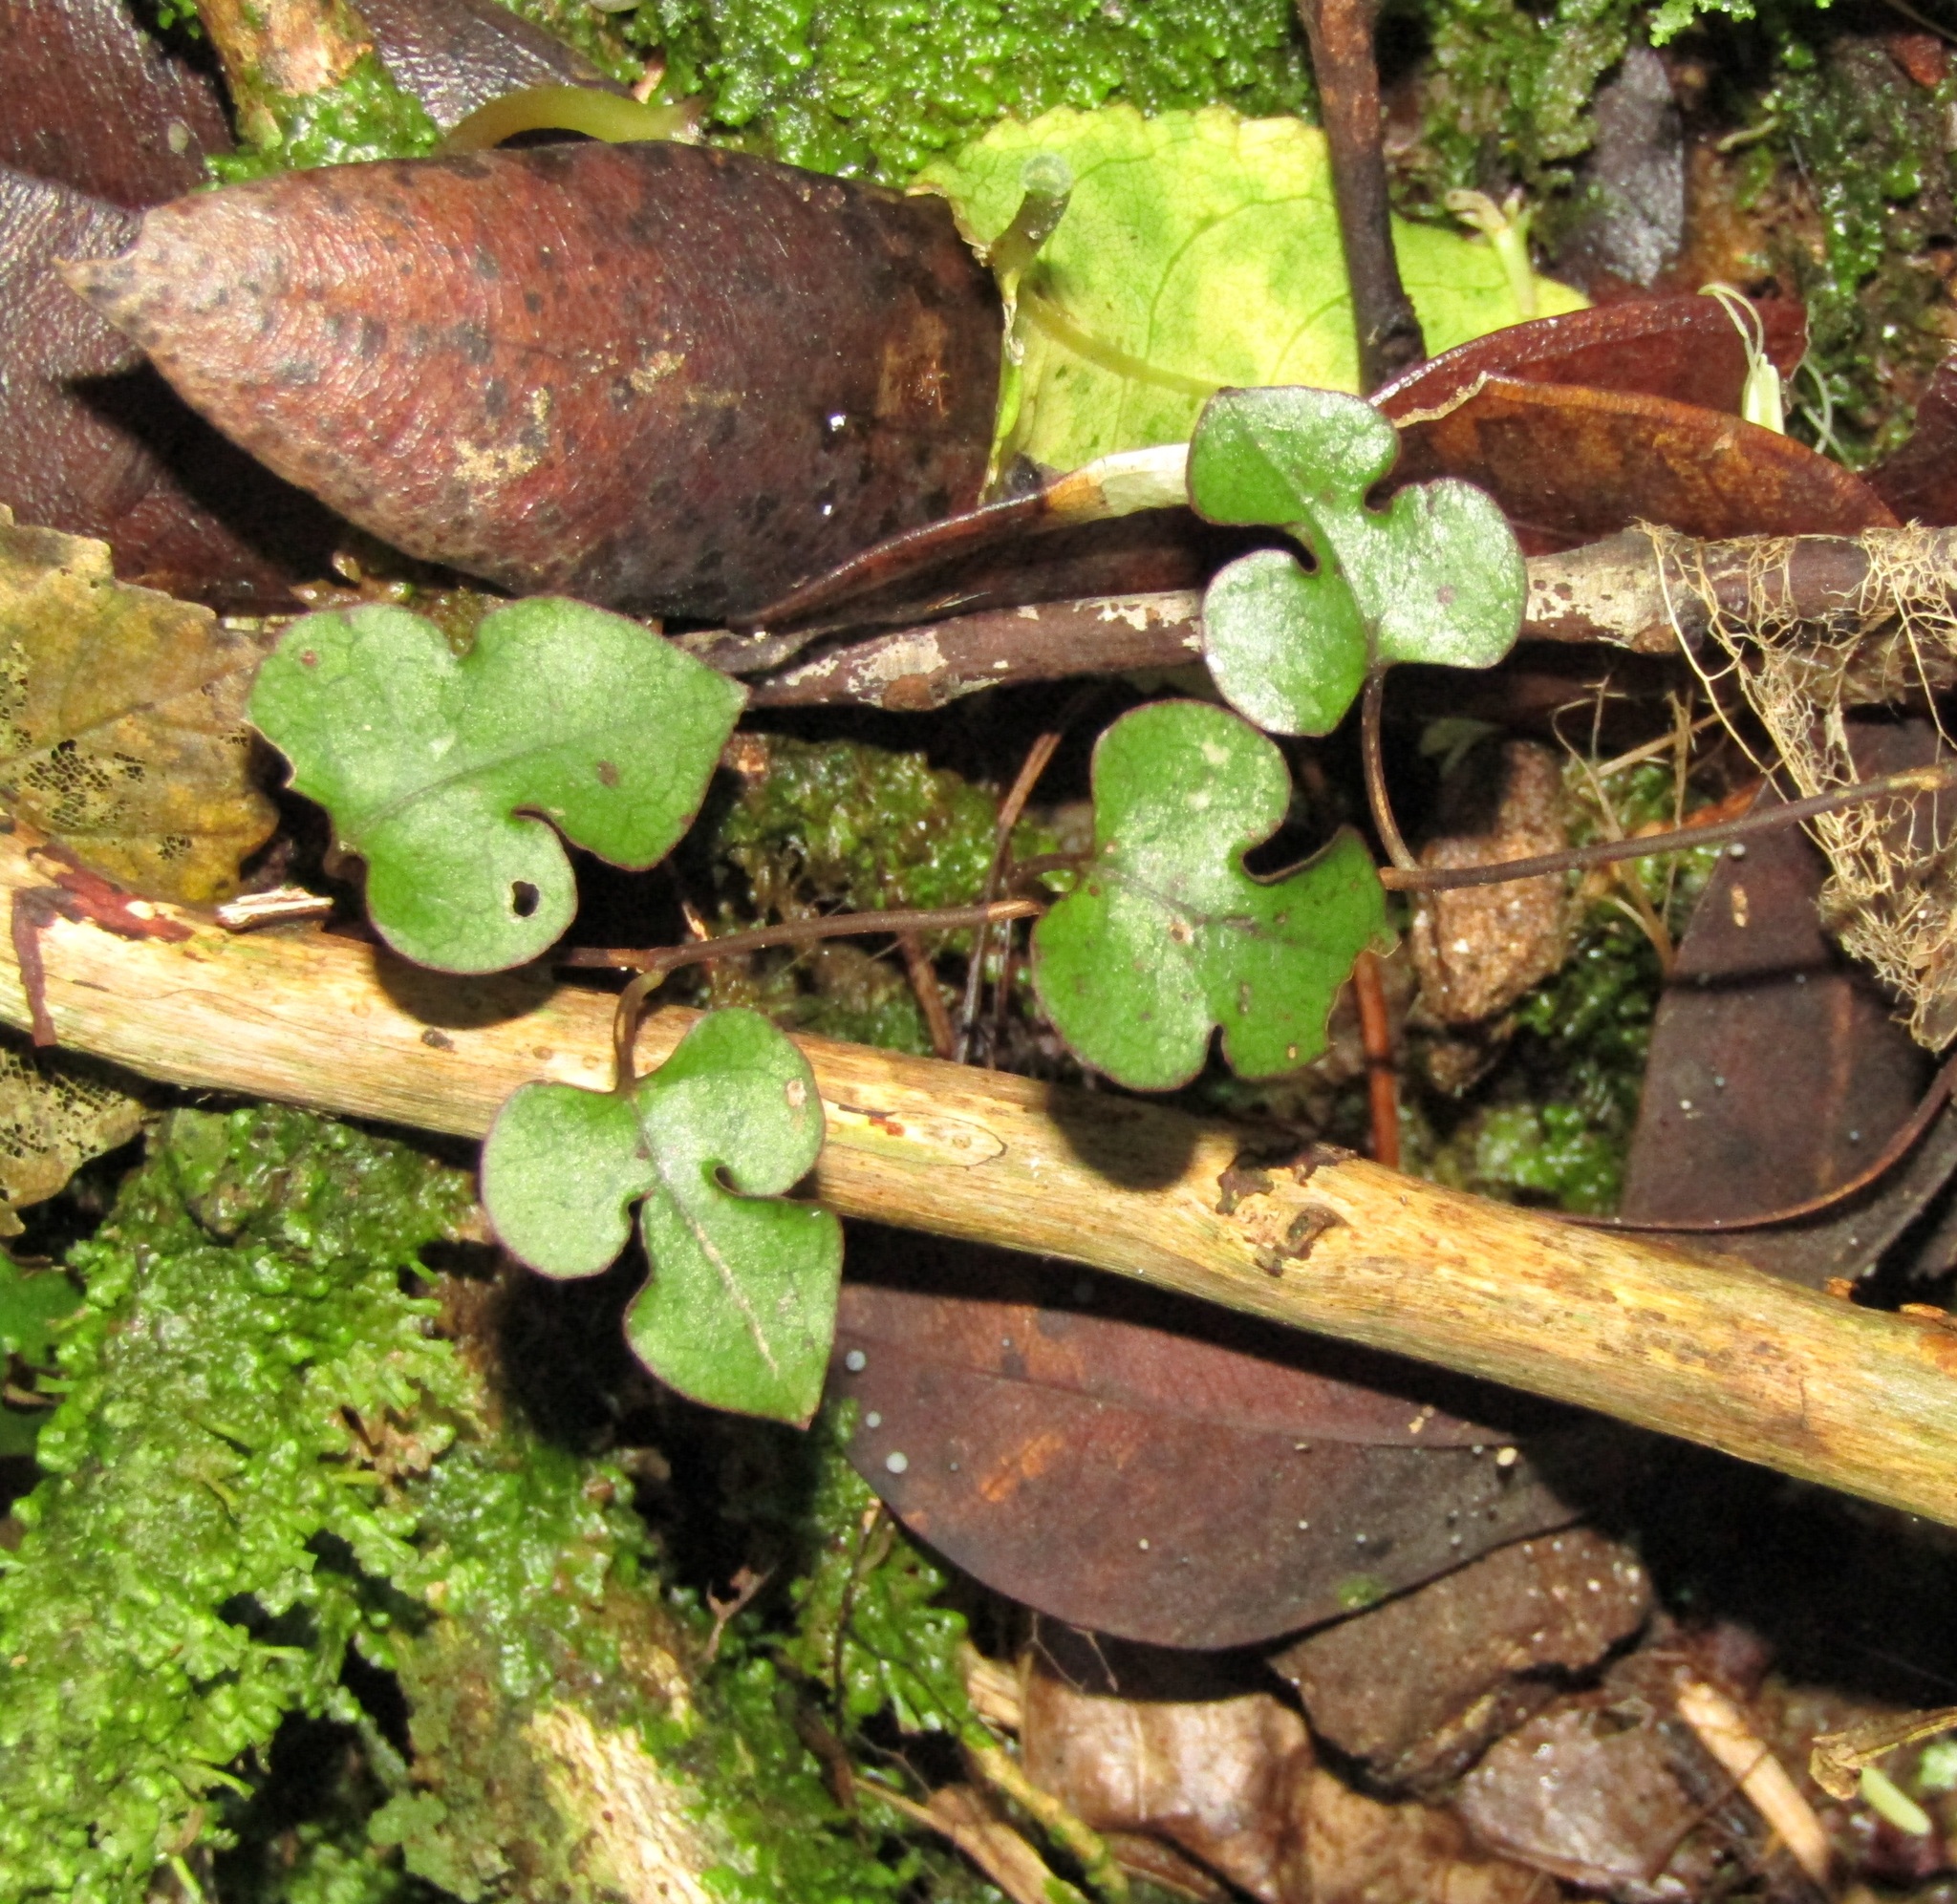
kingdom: Plantae
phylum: Tracheophyta
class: Magnoliopsida
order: Caryophyllales
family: Polygonaceae
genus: Muehlenbeckia
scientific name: Muehlenbeckia australis
